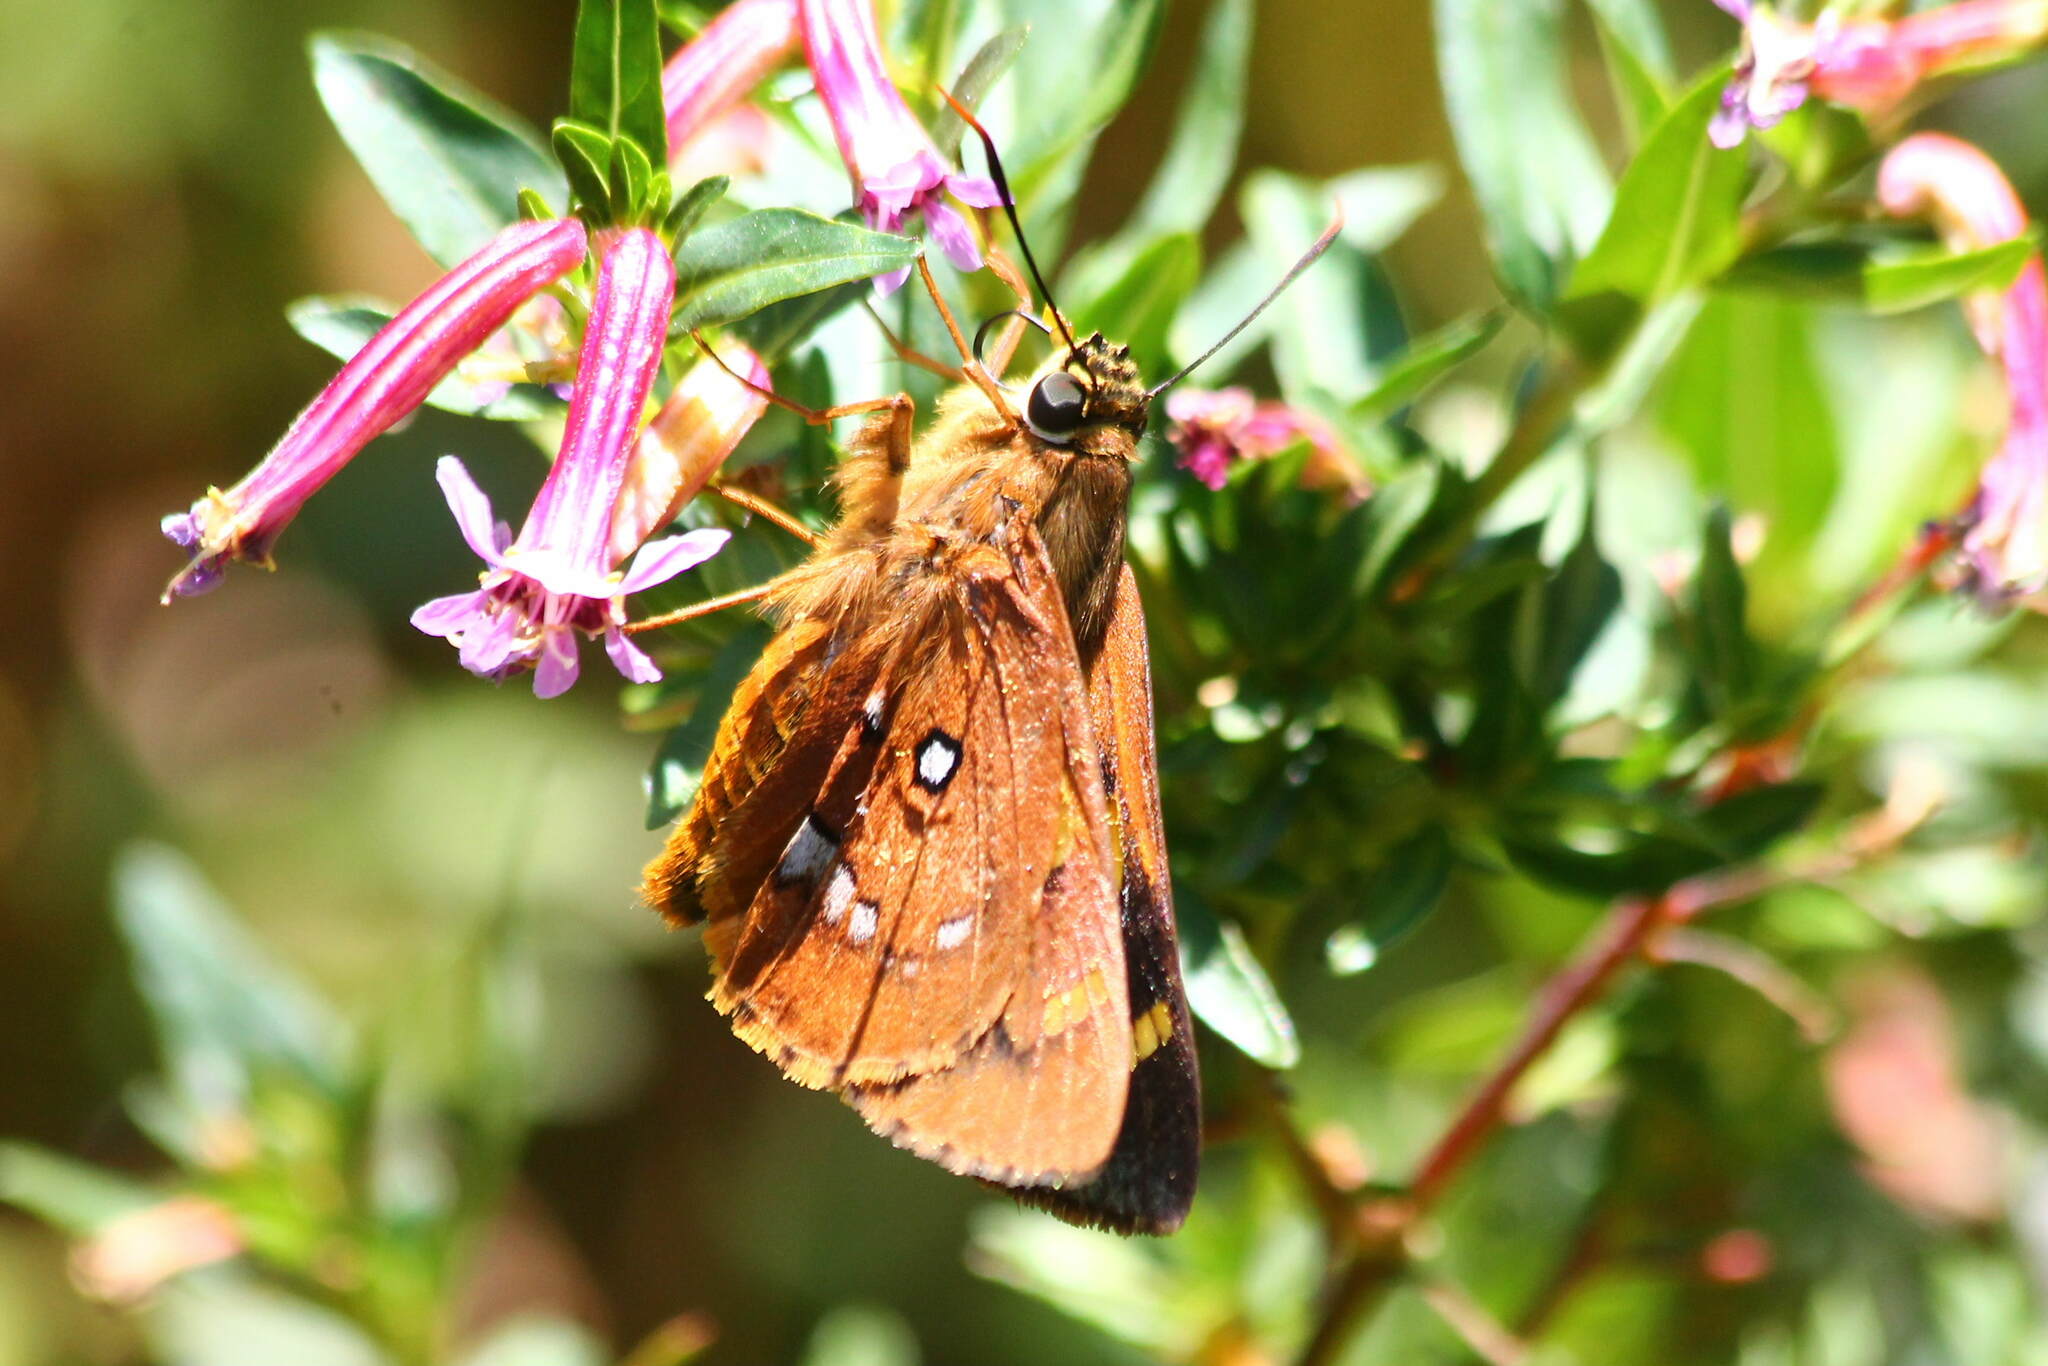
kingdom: Animalia
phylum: Arthropoda
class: Insecta
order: Lepidoptera
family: Hesperiidae
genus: Trapezites
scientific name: Trapezites symmomus
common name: Splendid ochre
